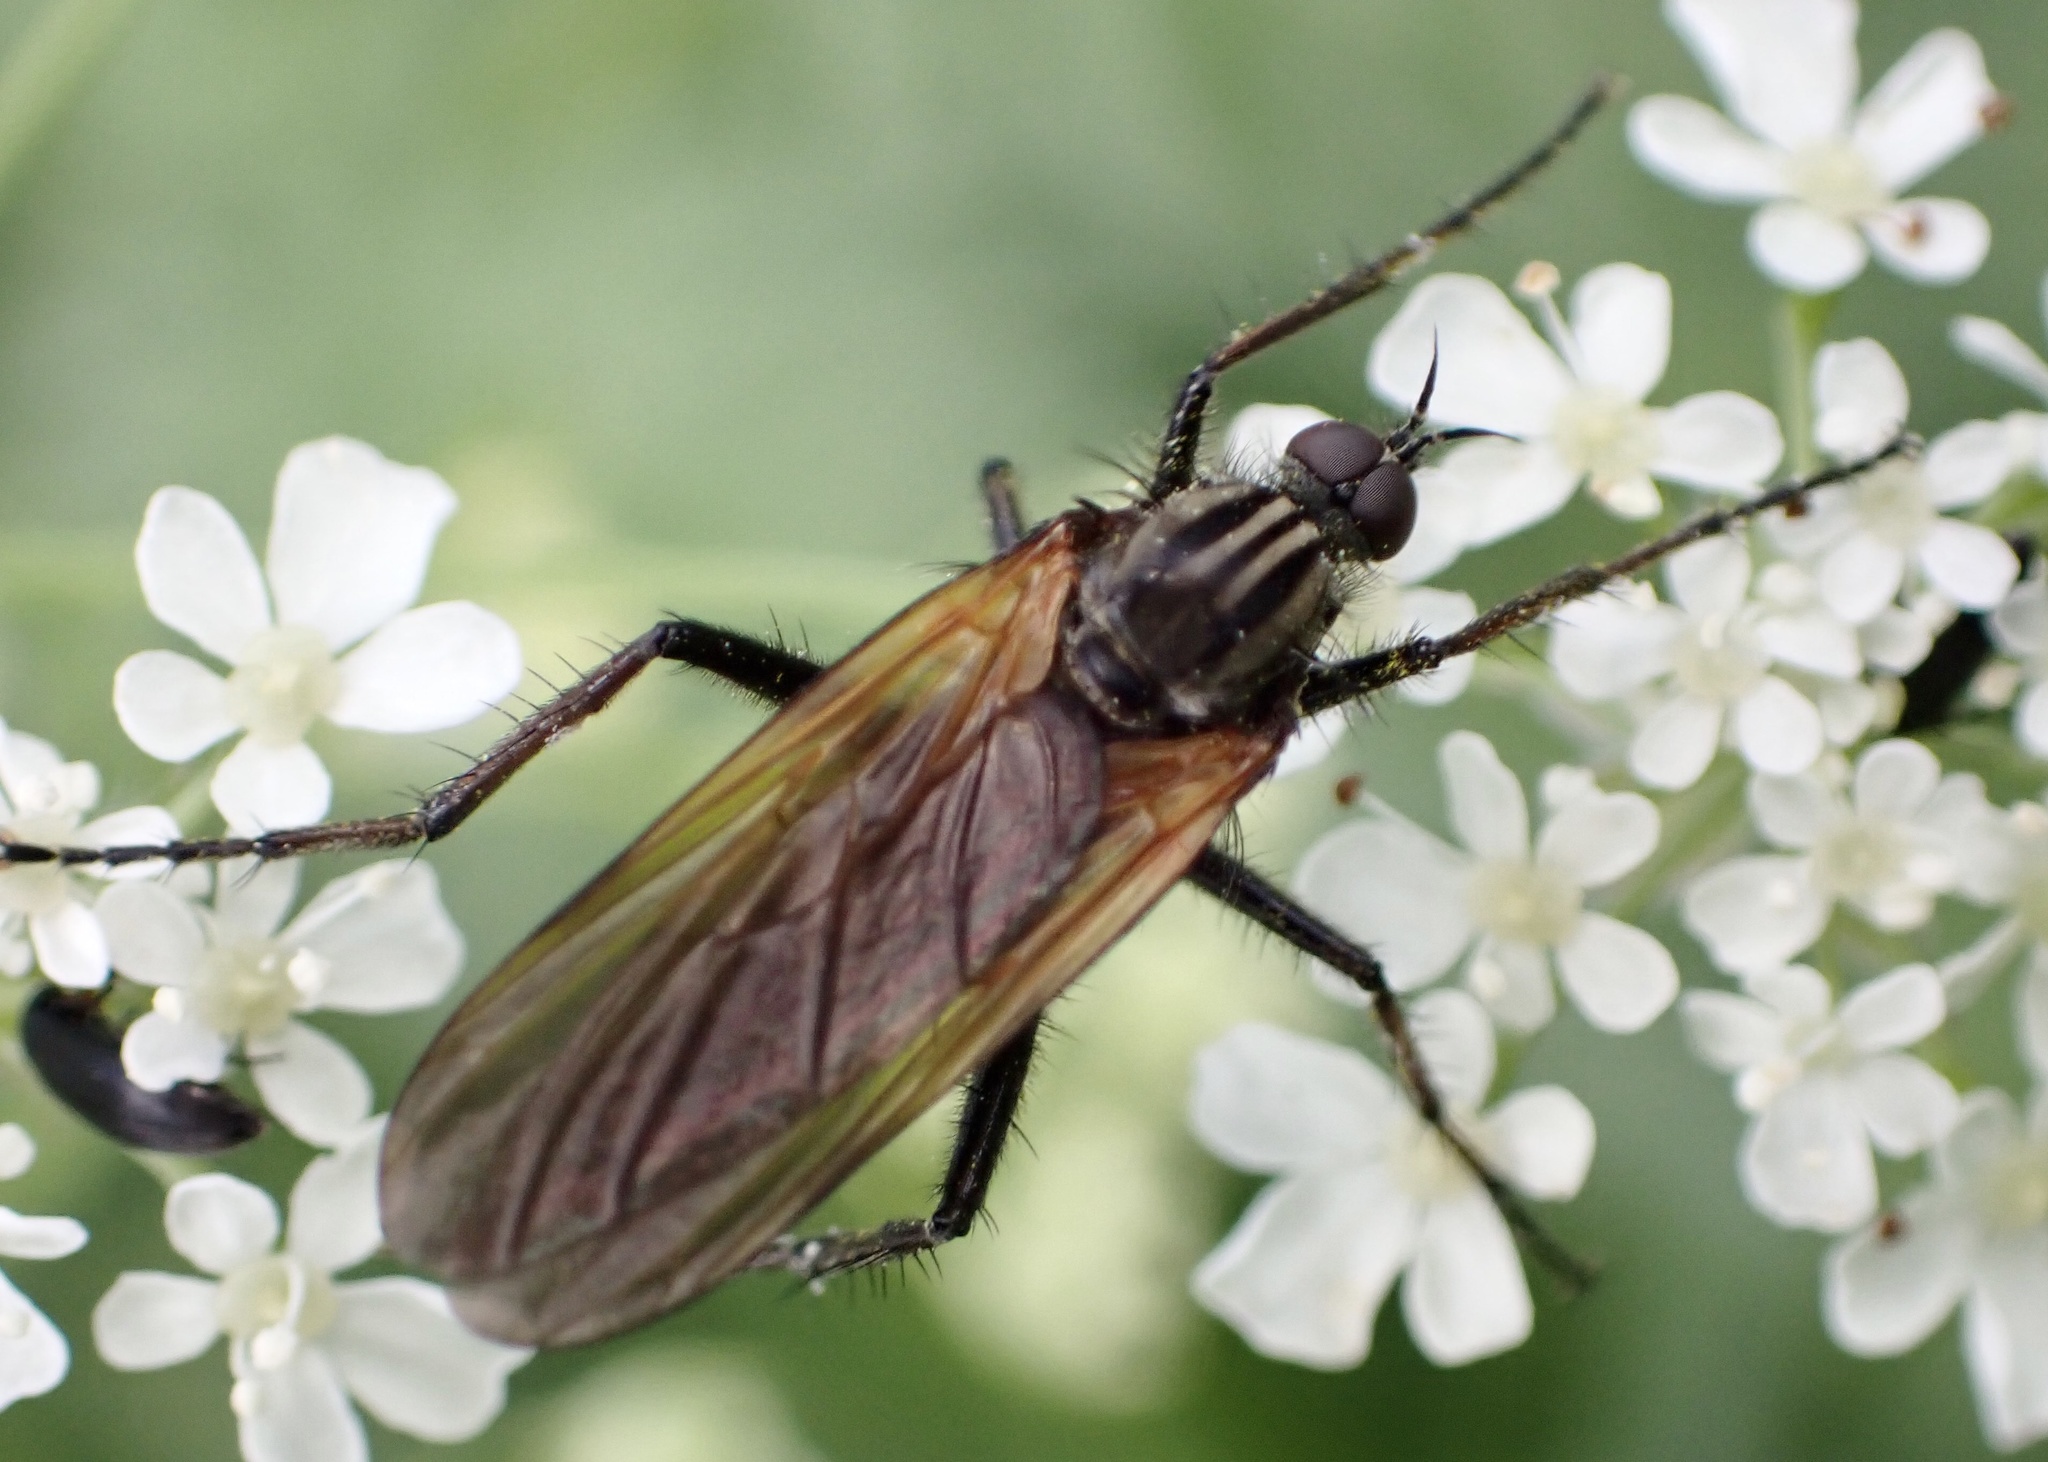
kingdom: Animalia
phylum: Arthropoda
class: Insecta
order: Diptera
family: Empididae
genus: Empis
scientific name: Empis tessellata
